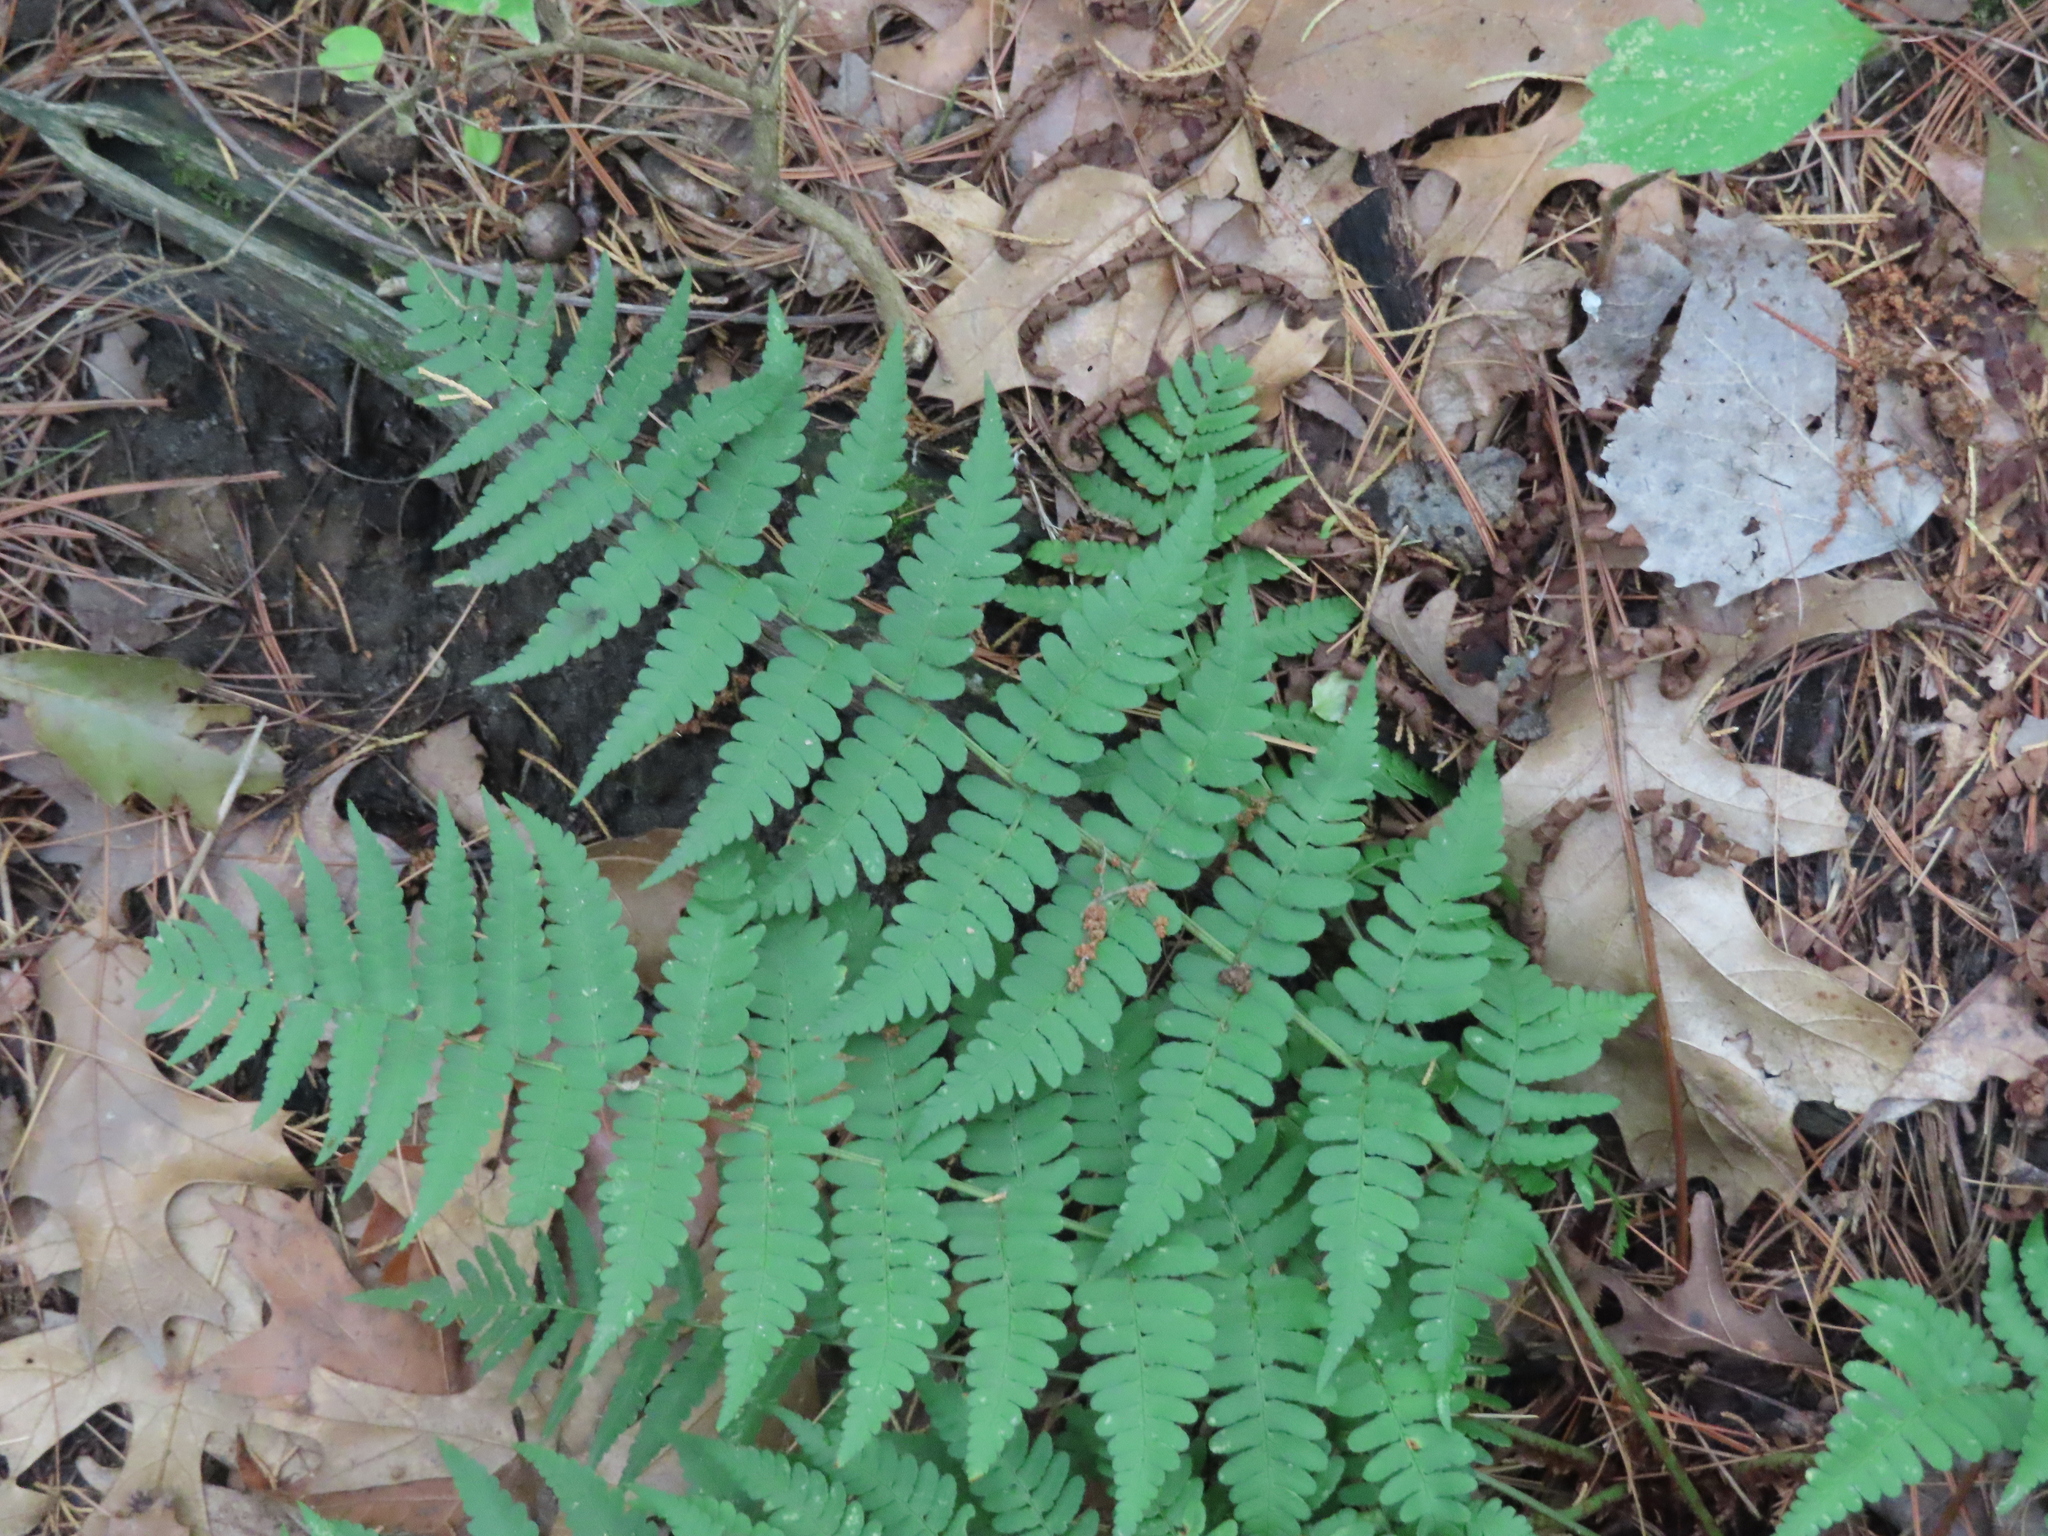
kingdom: Plantae
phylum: Tracheophyta
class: Polypodiopsida
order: Polypodiales
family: Dryopteridaceae
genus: Dryopteris
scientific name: Dryopteris marginalis
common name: Marginal wood fern
